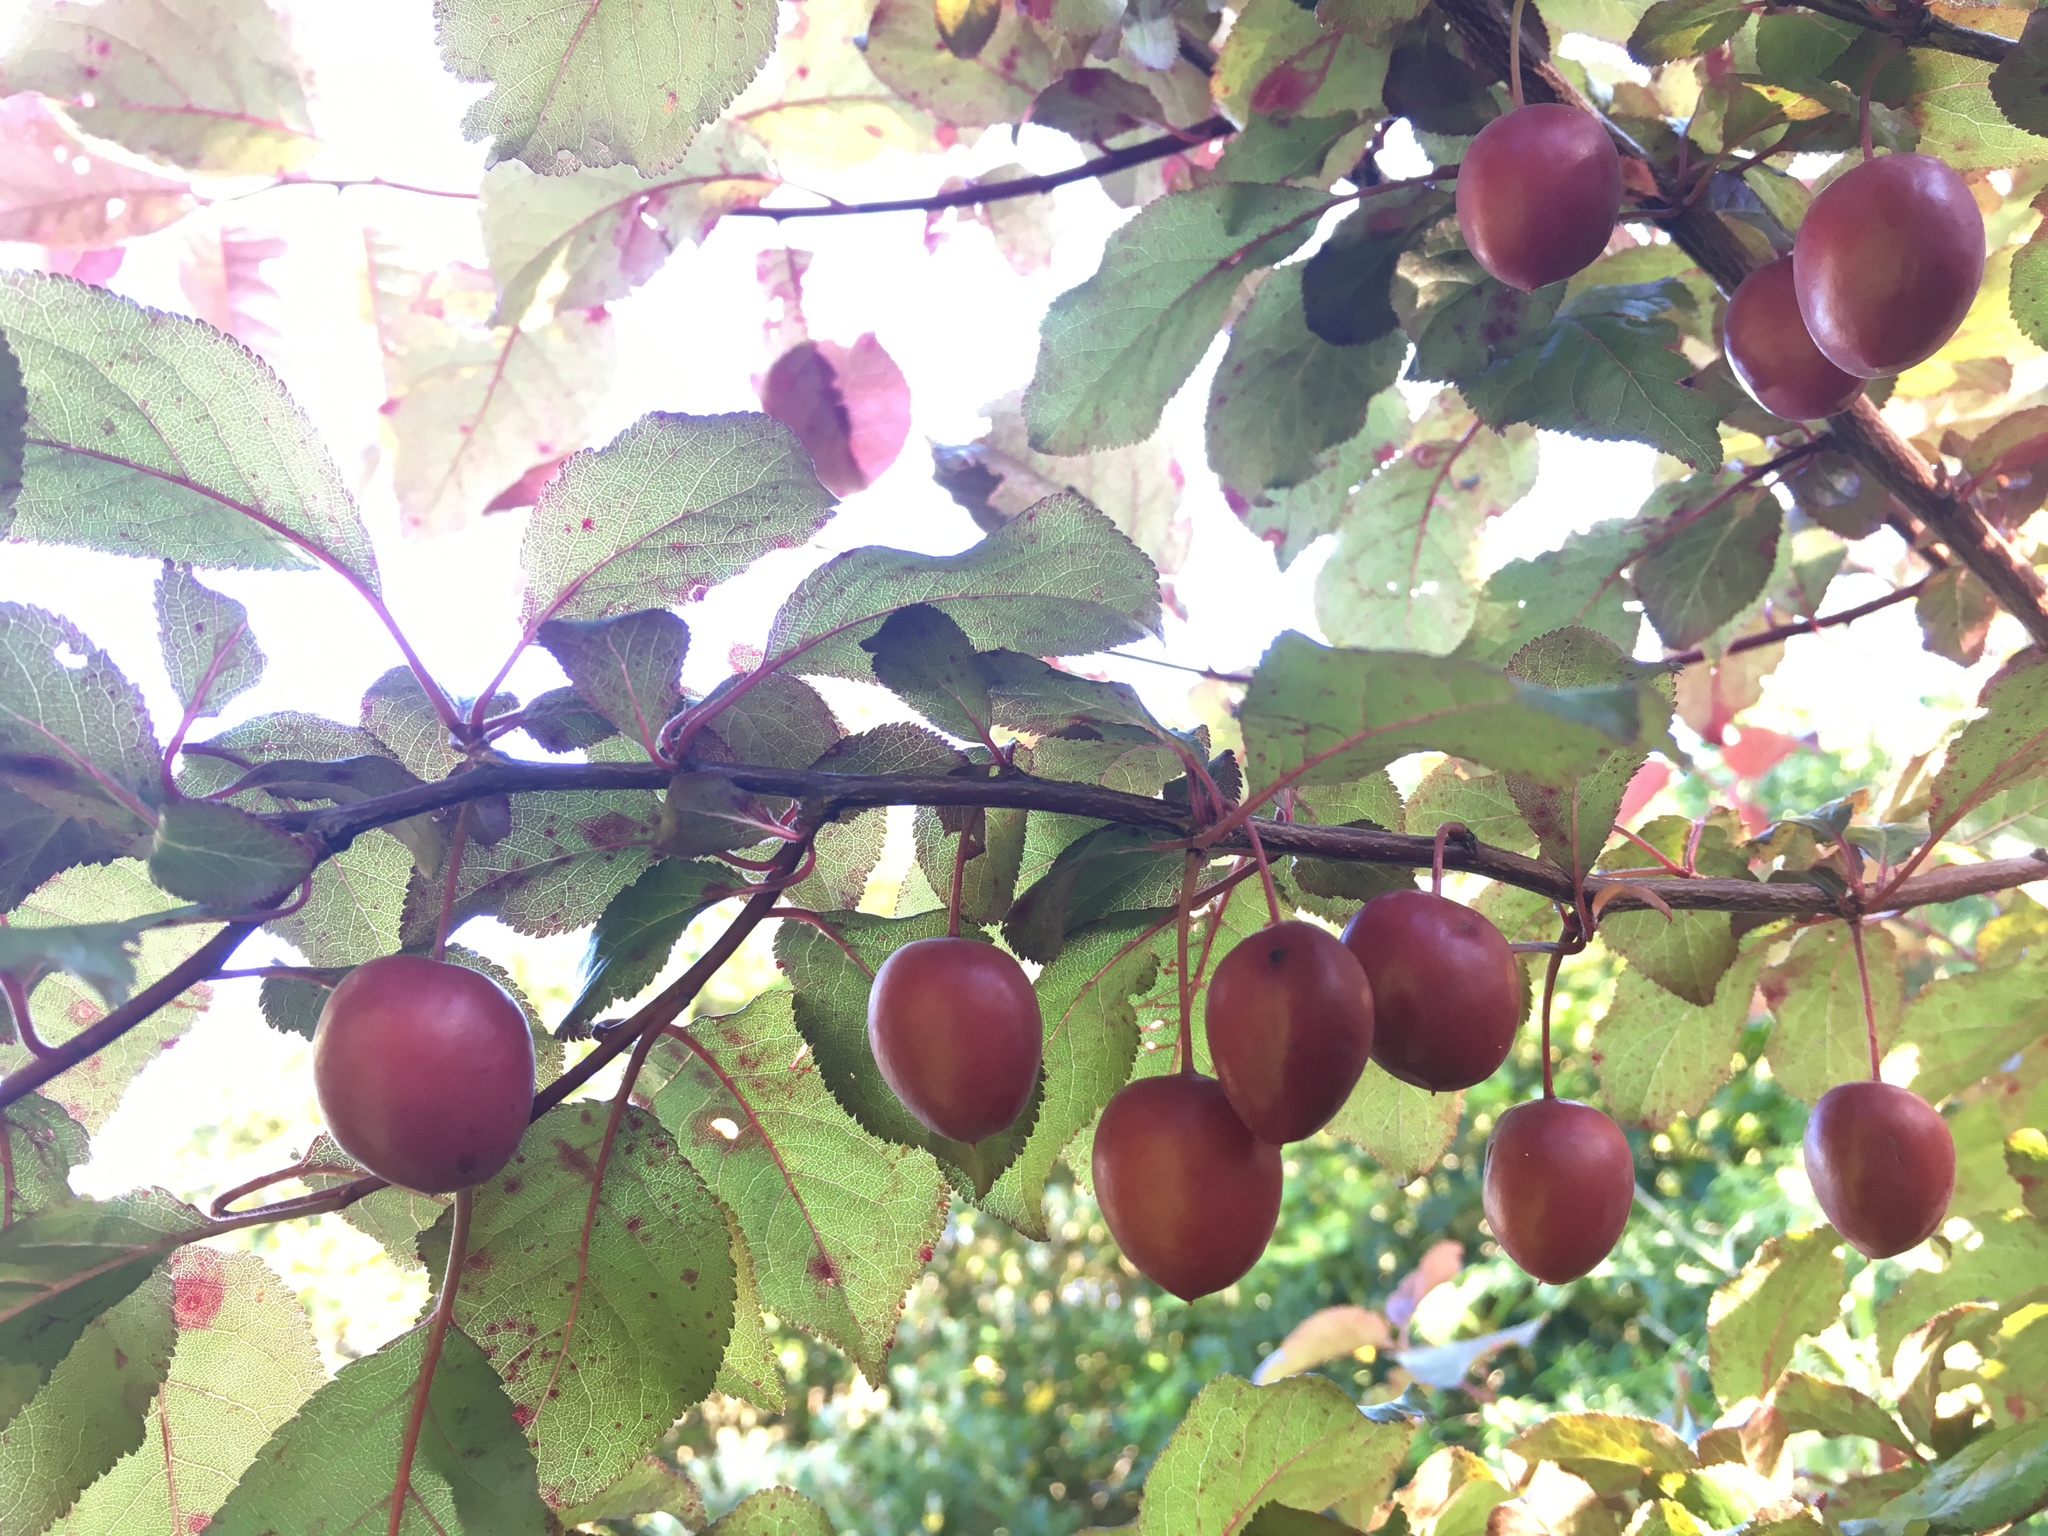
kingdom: Plantae
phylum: Tracheophyta
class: Magnoliopsida
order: Rosales
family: Rosaceae
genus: Prunus
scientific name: Prunus cerasifera
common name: Cherry plum
